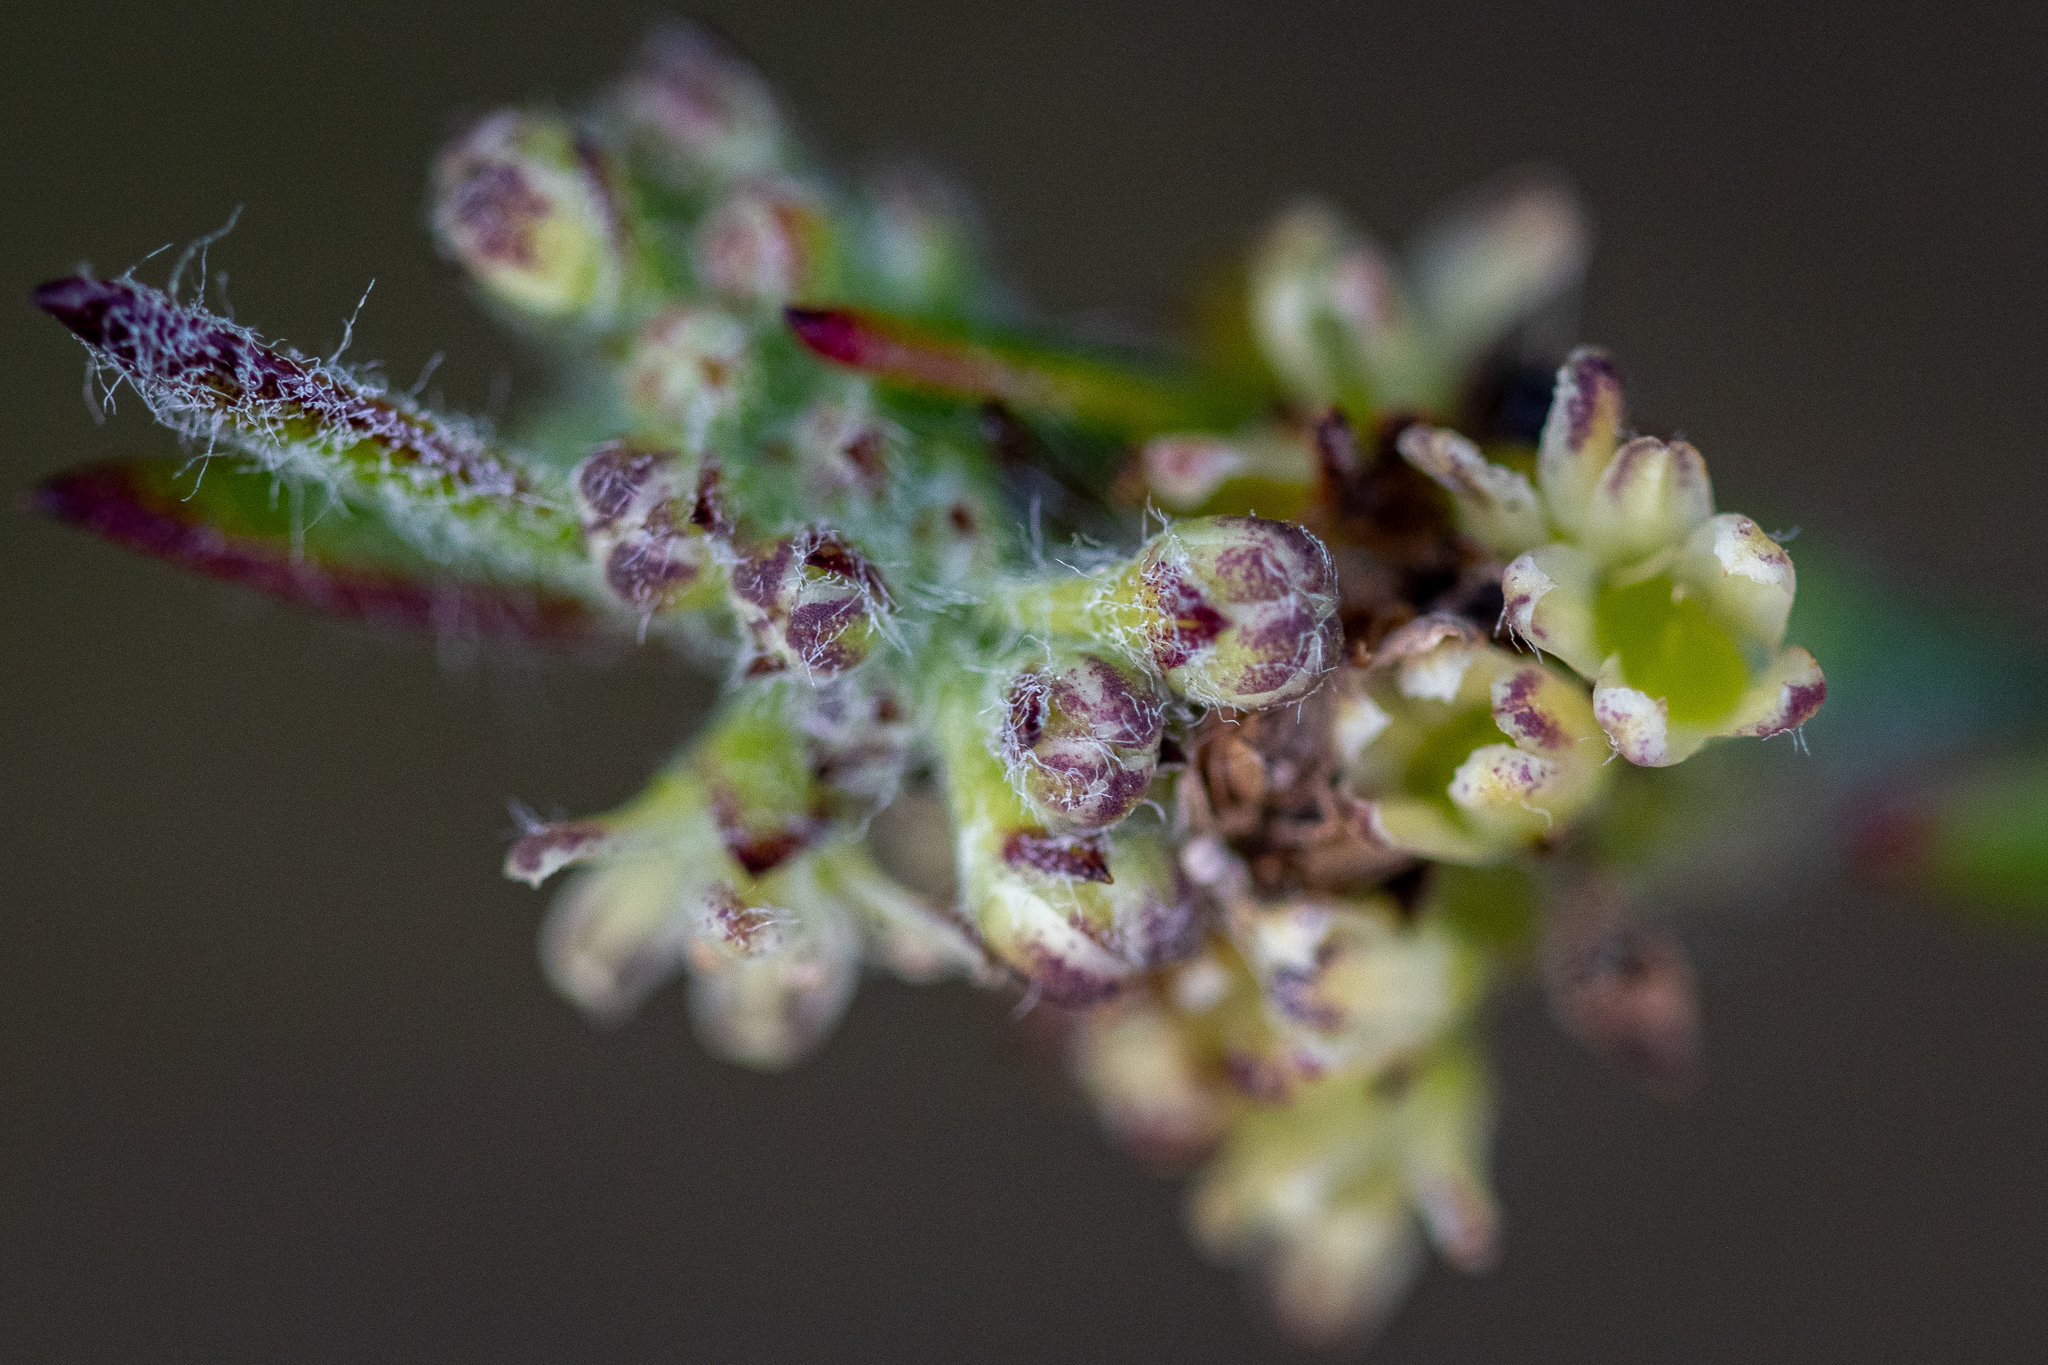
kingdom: Plantae
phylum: Tracheophyta
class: Magnoliopsida
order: Apiales
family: Apiaceae
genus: Centella
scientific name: Centella difformis
